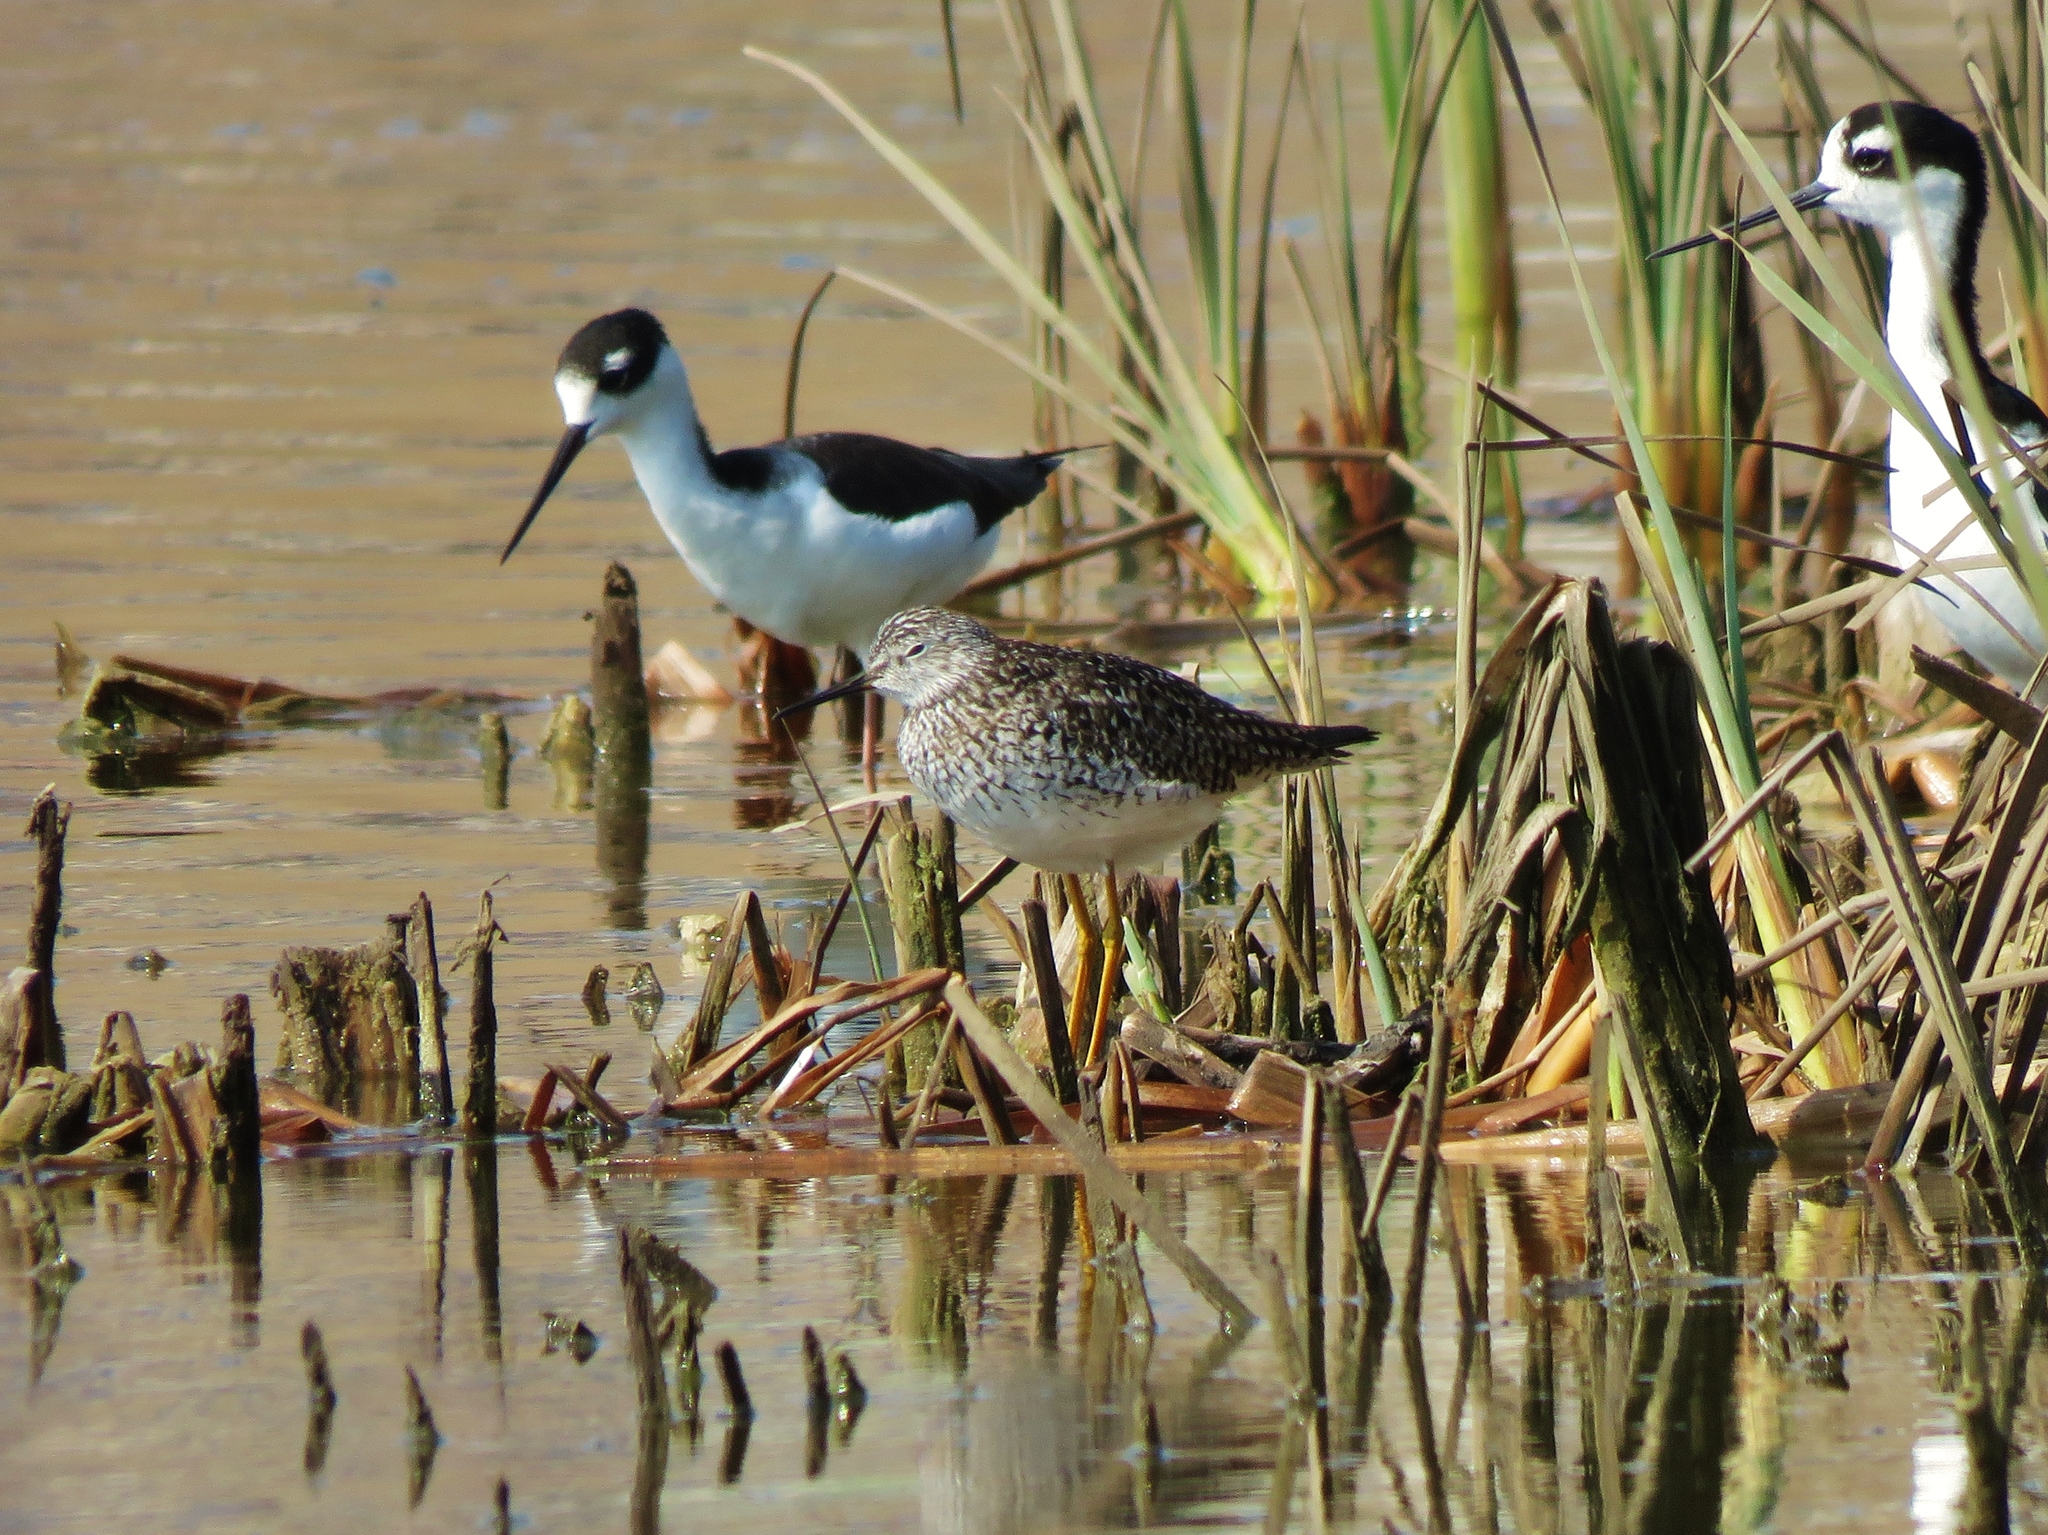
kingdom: Animalia
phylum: Chordata
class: Aves
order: Charadriiformes
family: Scolopacidae
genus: Tringa
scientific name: Tringa flavipes
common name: Lesser yellowlegs
